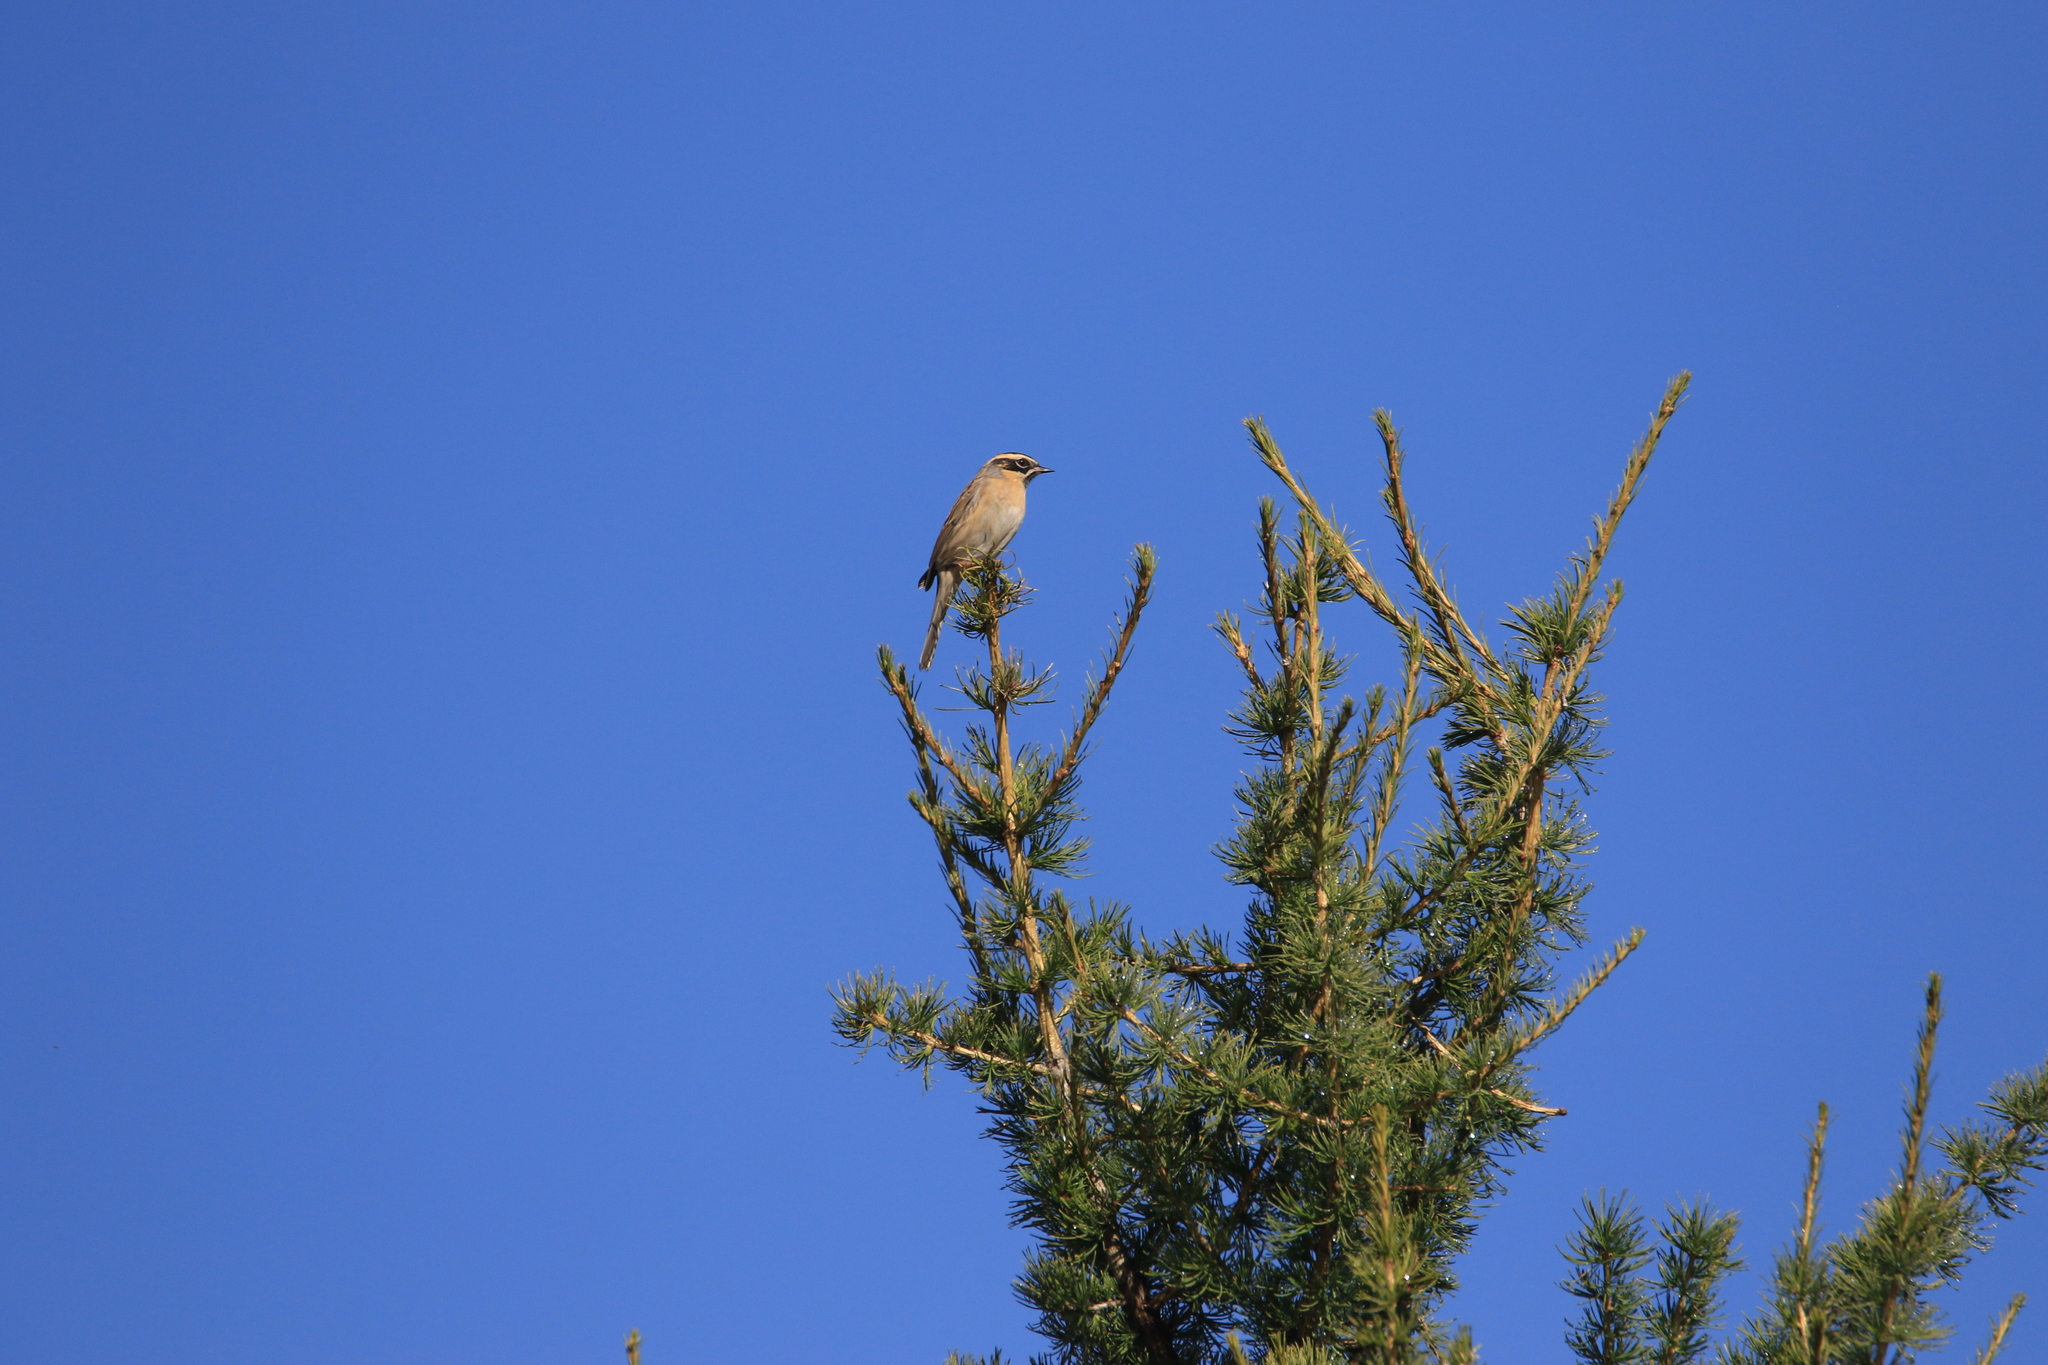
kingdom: Animalia
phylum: Chordata
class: Aves
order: Passeriformes
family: Prunellidae
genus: Prunella
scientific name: Prunella atrogularis
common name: Black-throated accentor
